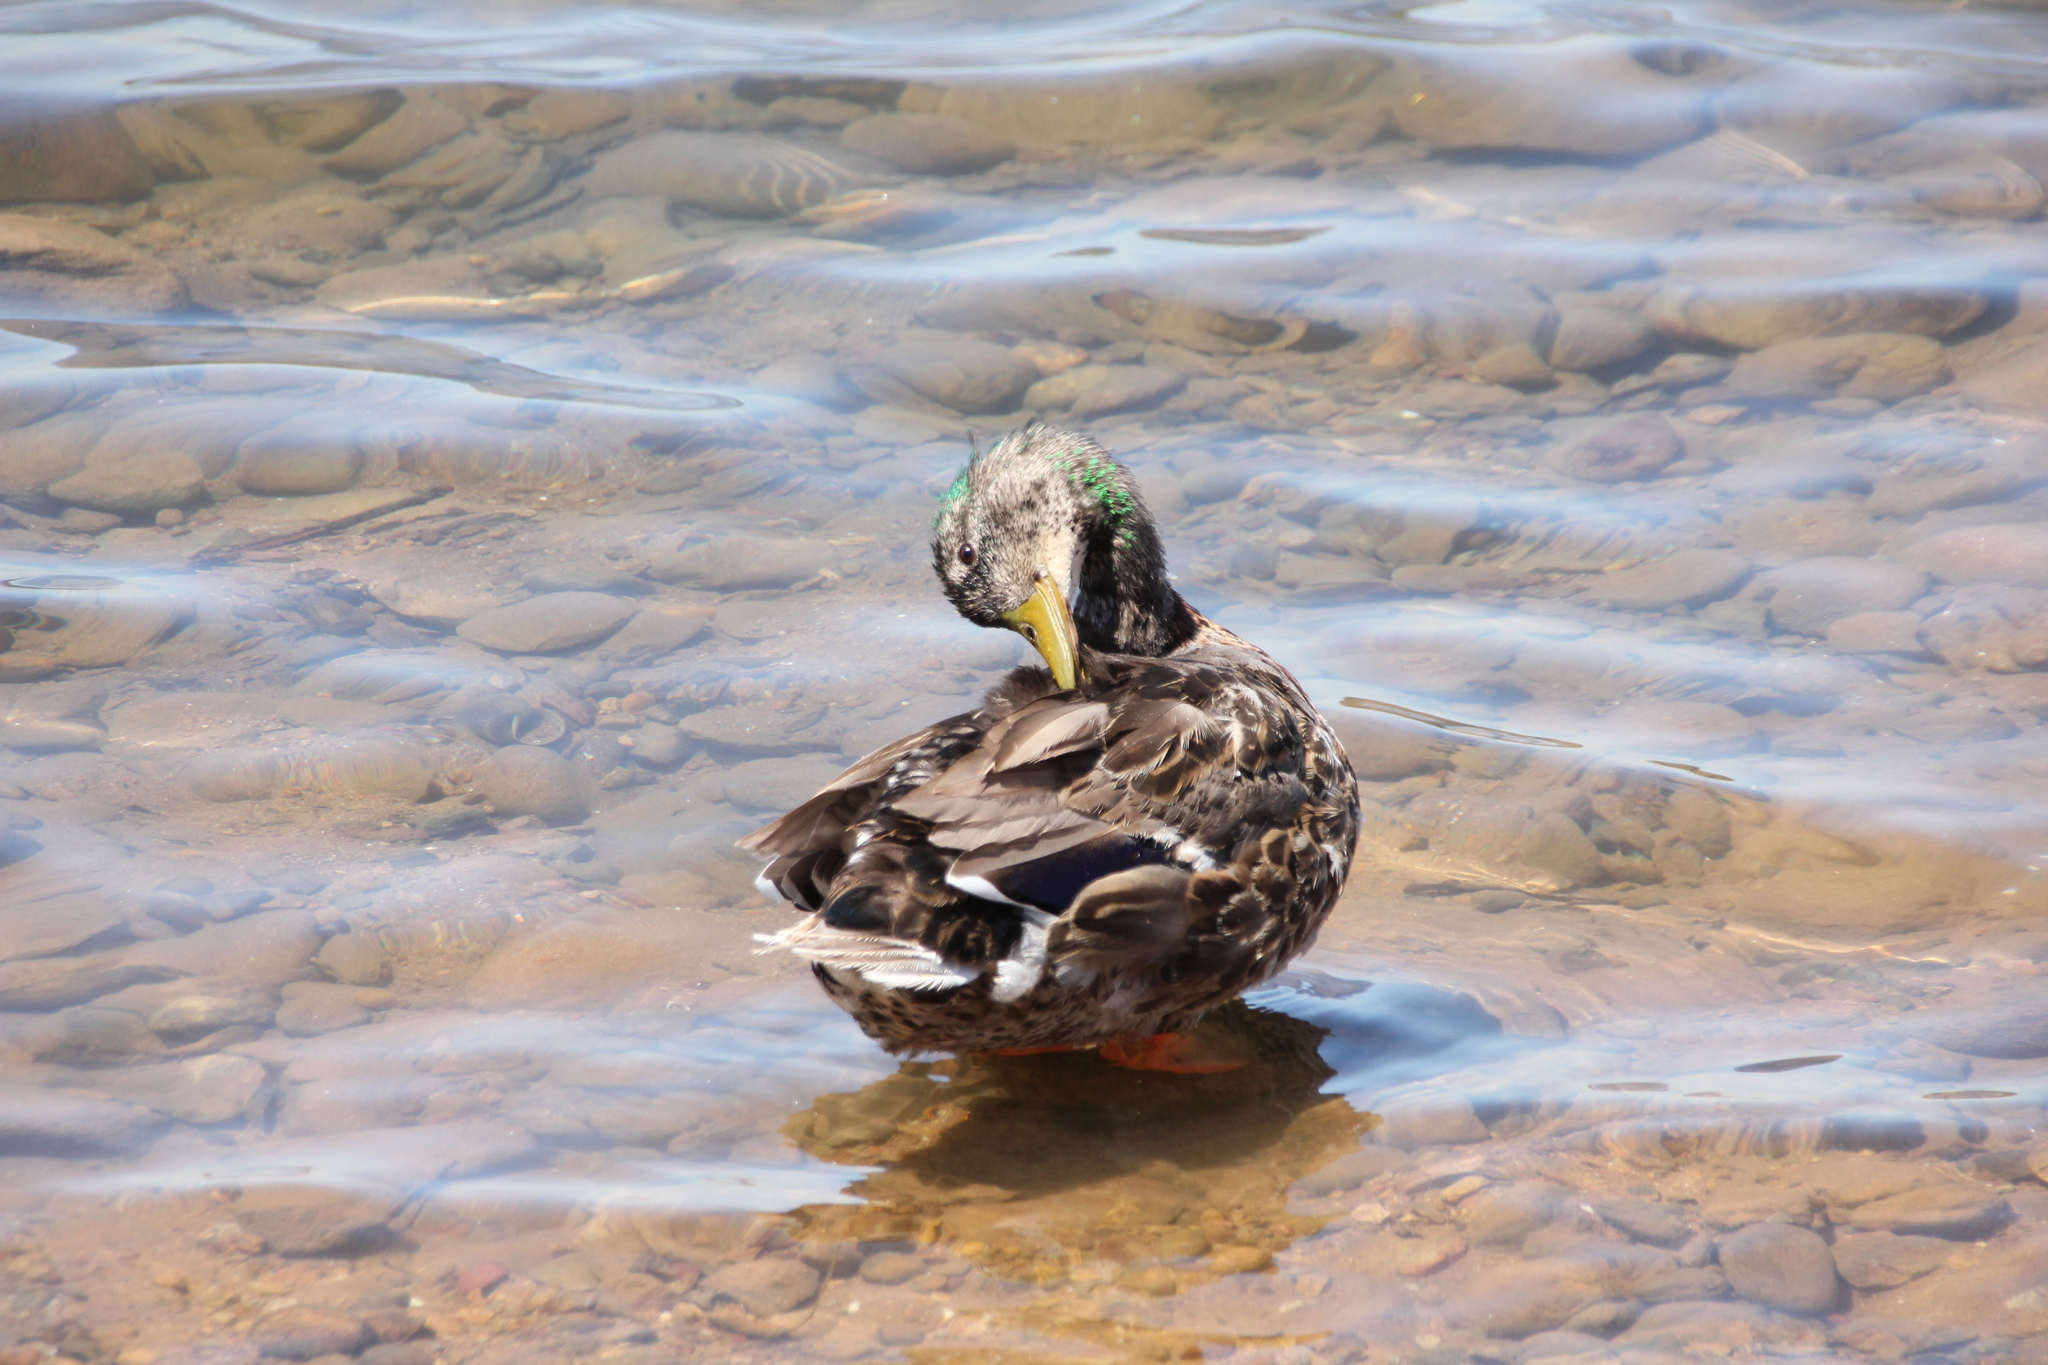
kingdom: Animalia
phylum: Chordata
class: Aves
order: Anseriformes
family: Anatidae
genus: Anas
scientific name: Anas platyrhynchos
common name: Mallard
